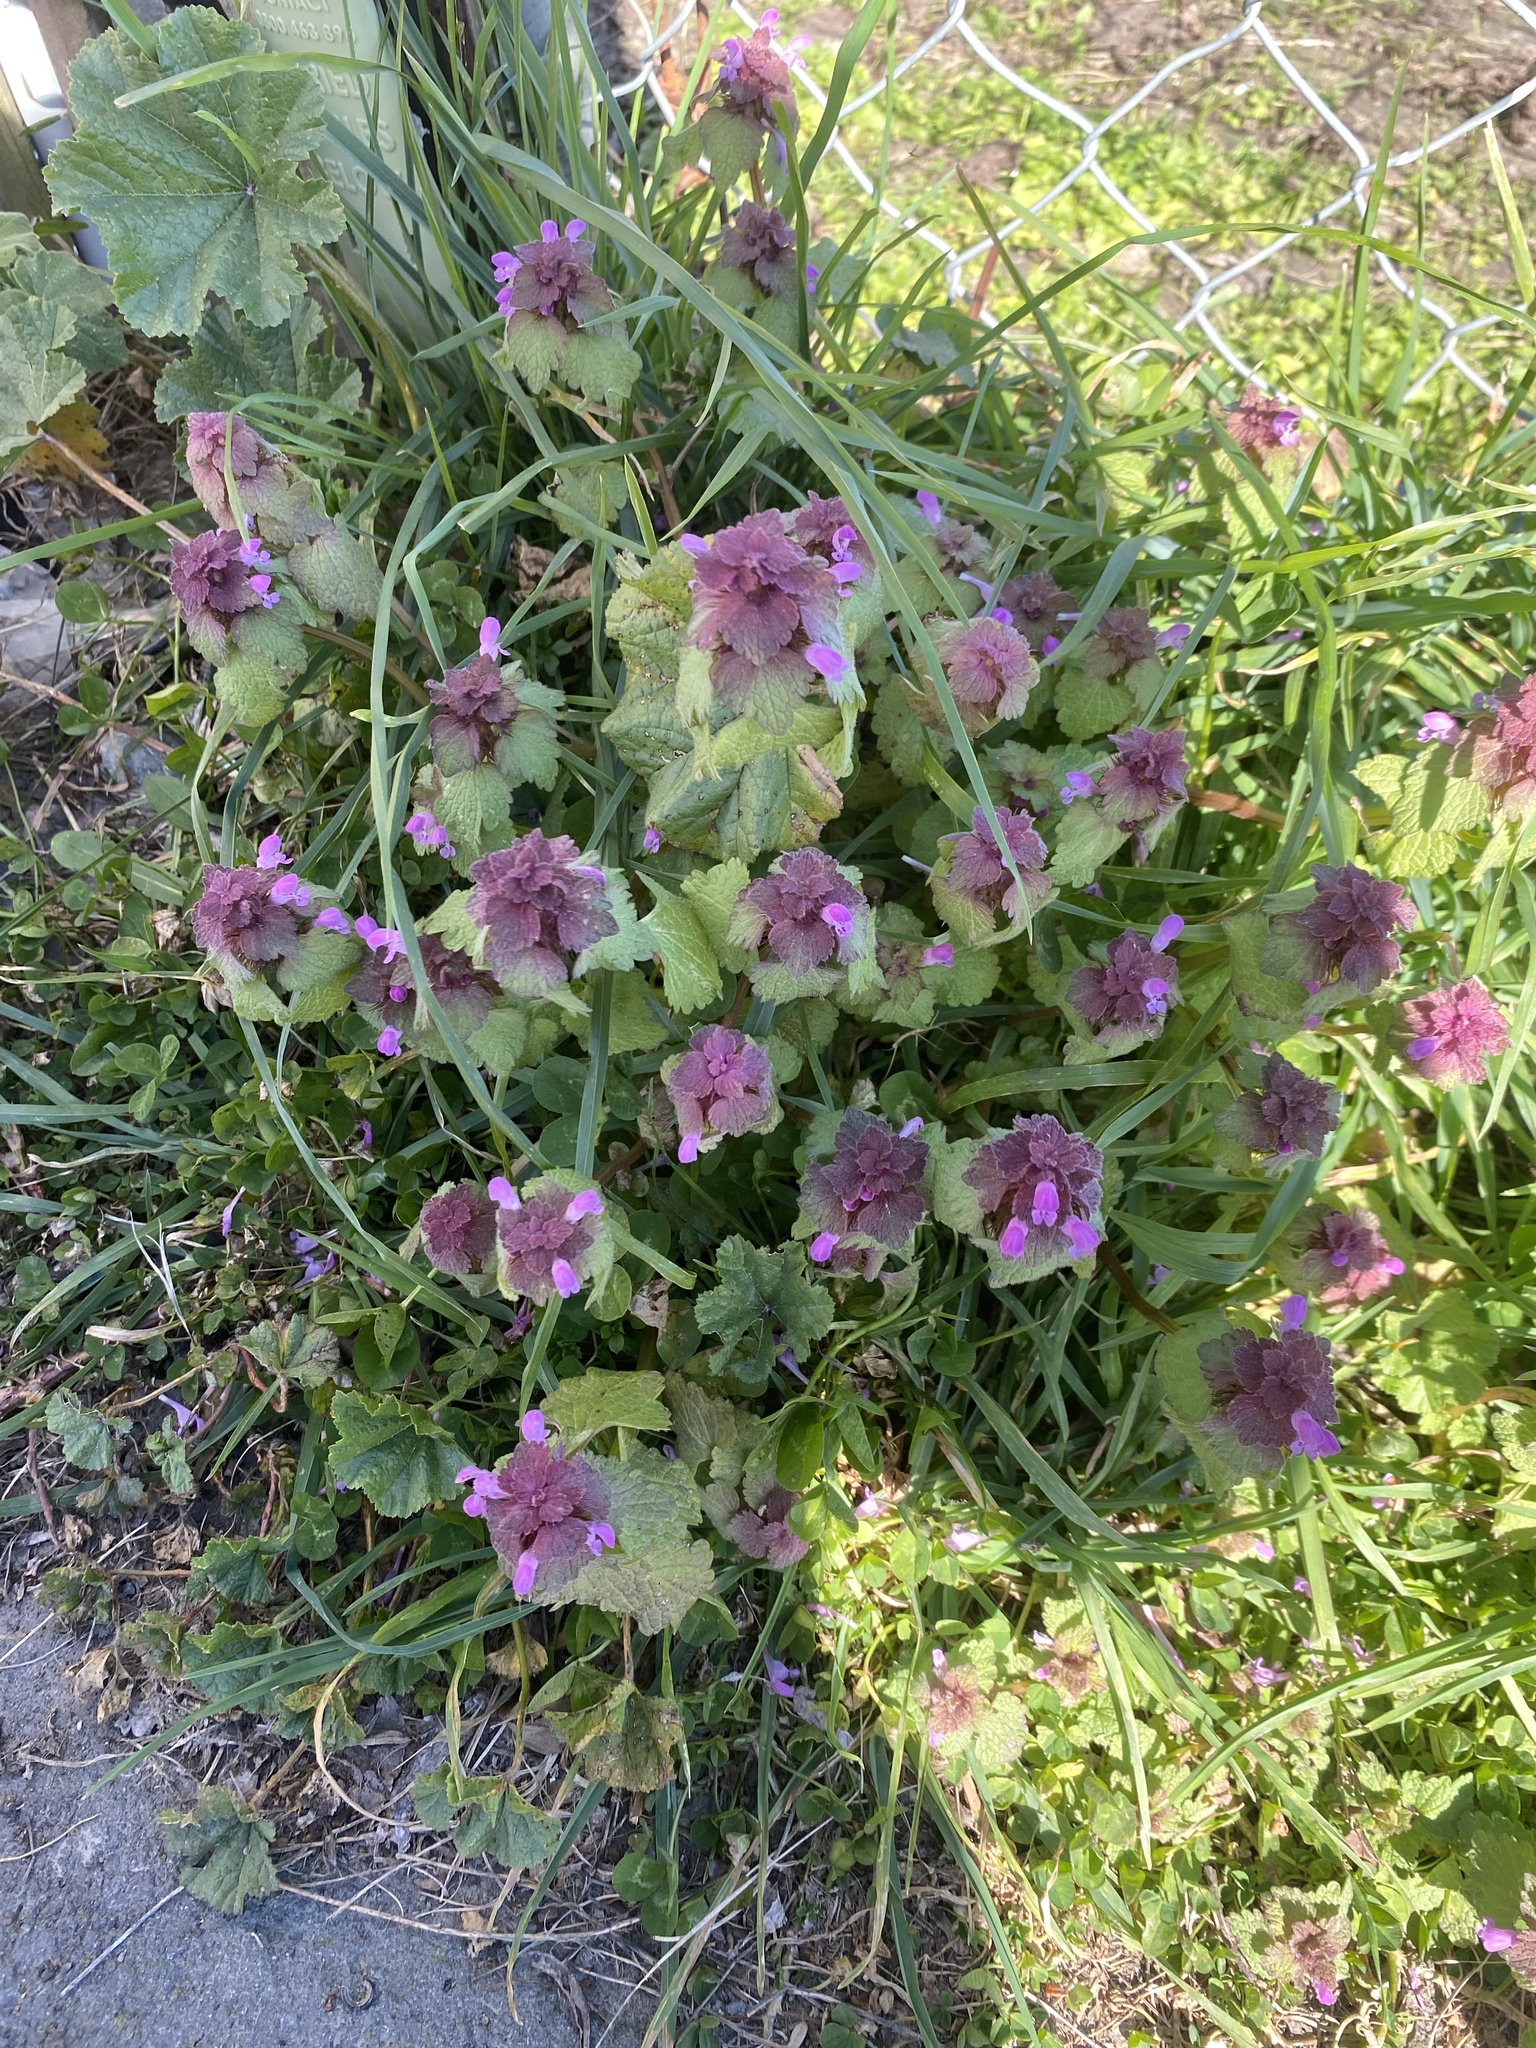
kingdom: Plantae
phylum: Tracheophyta
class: Magnoliopsida
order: Lamiales
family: Lamiaceae
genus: Lamium
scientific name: Lamium purpureum
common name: Red dead-nettle
